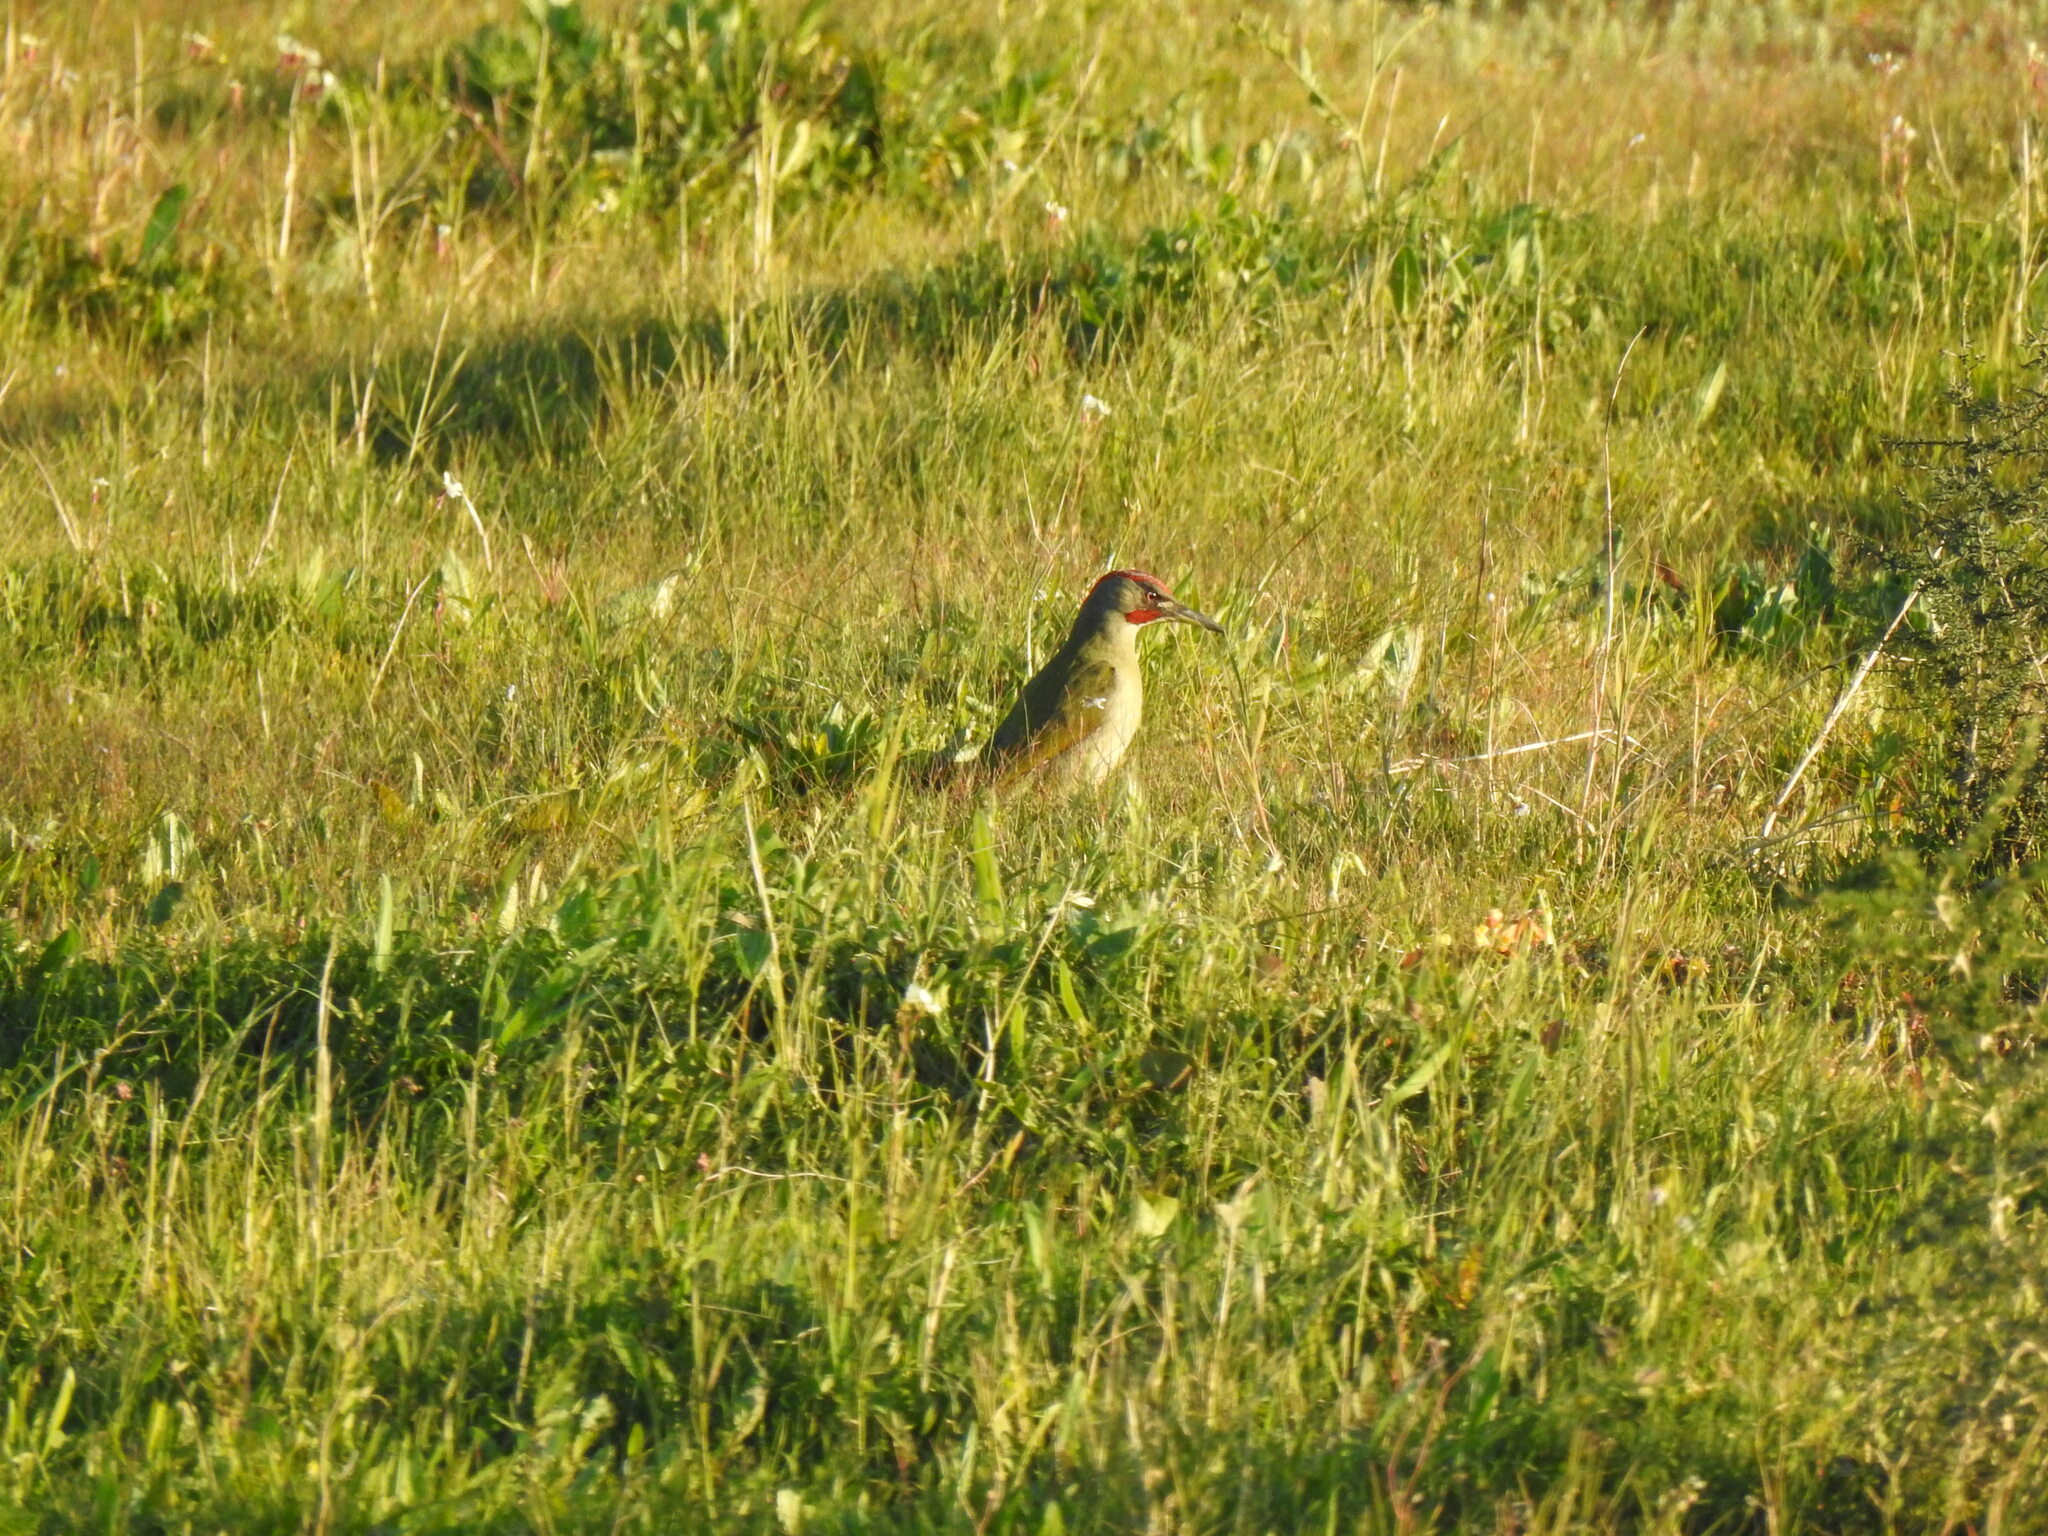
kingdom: Animalia
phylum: Chordata
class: Aves
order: Piciformes
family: Picidae
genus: Picus
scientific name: Picus sharpei
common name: Iberian green woodpecker
